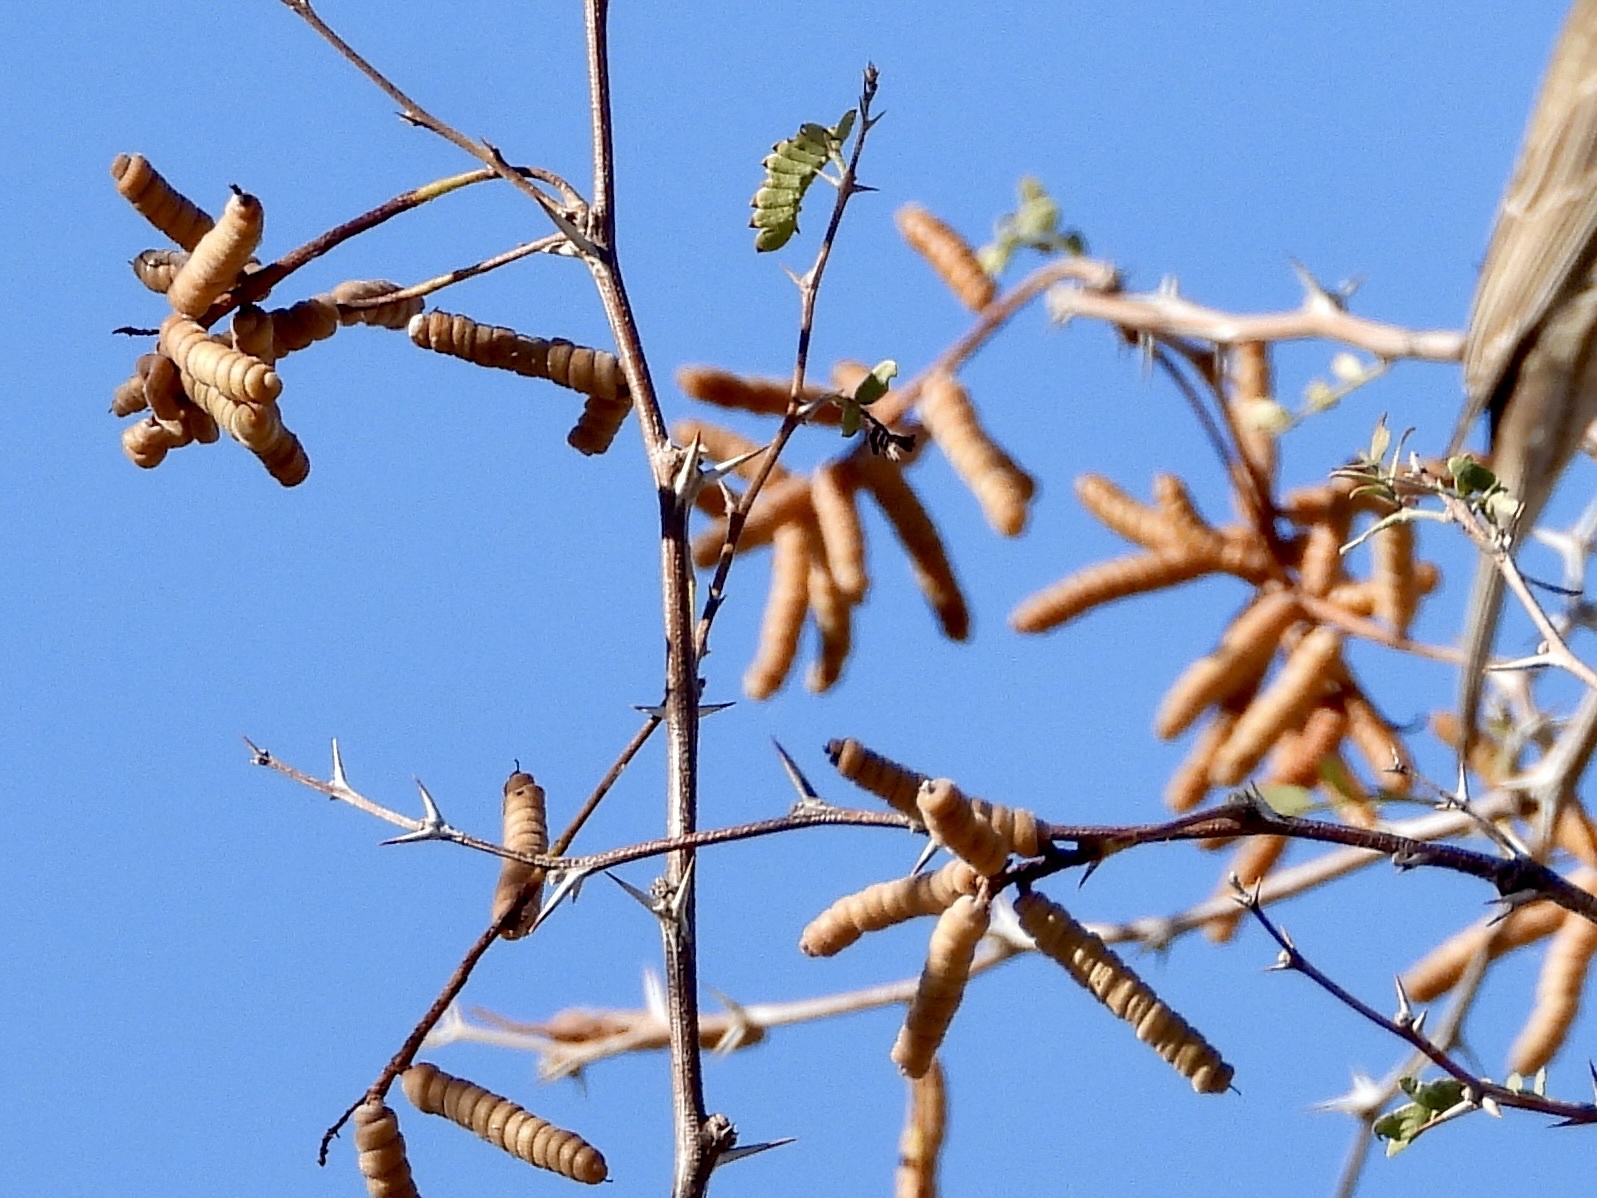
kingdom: Plantae
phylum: Tracheophyta
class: Magnoliopsida
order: Fabales
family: Fabaceae
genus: Prosopis
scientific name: Prosopis pubescens
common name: Screw-bean
